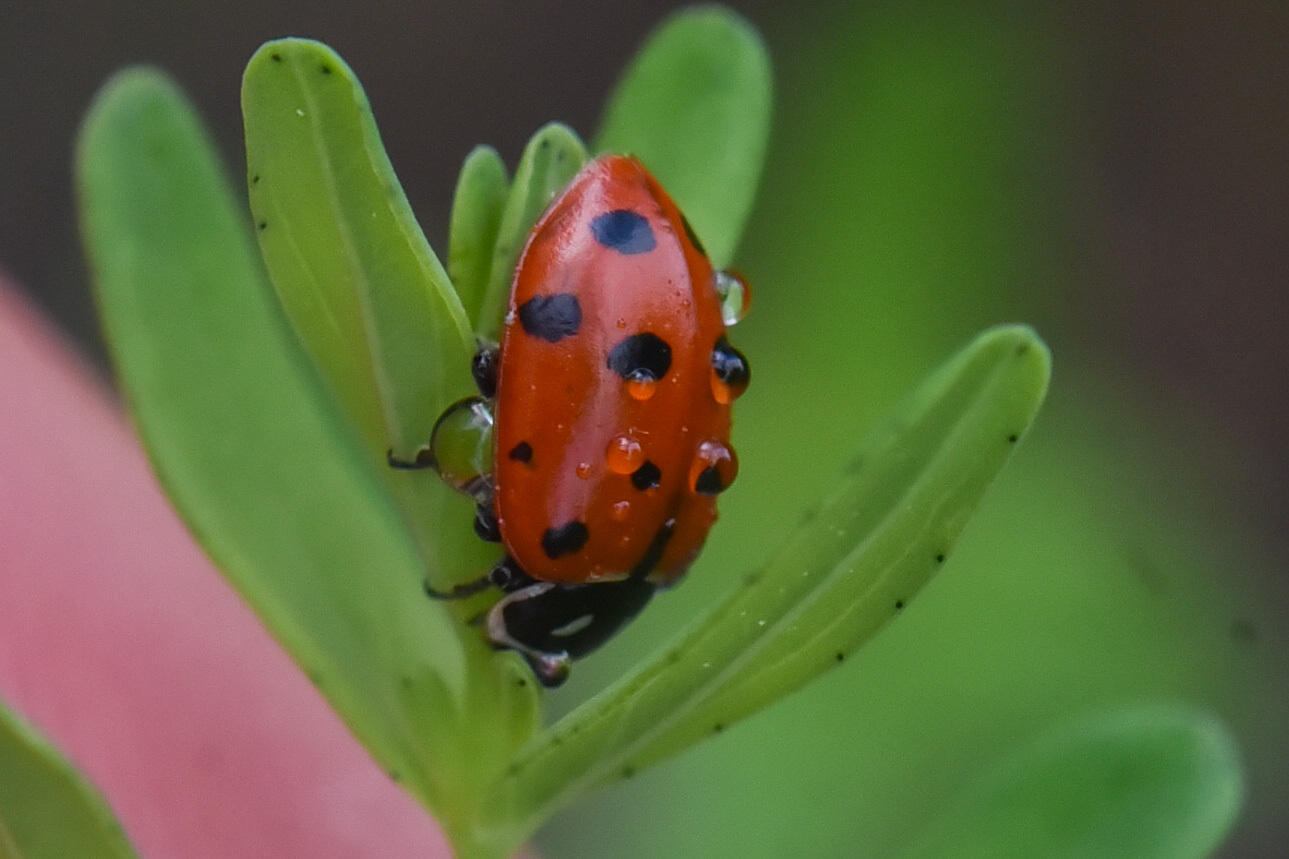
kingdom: Animalia
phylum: Arthropoda
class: Insecta
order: Coleoptera
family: Coccinellidae
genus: Hippodamia
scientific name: Hippodamia convergens
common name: Convergent lady beetle
